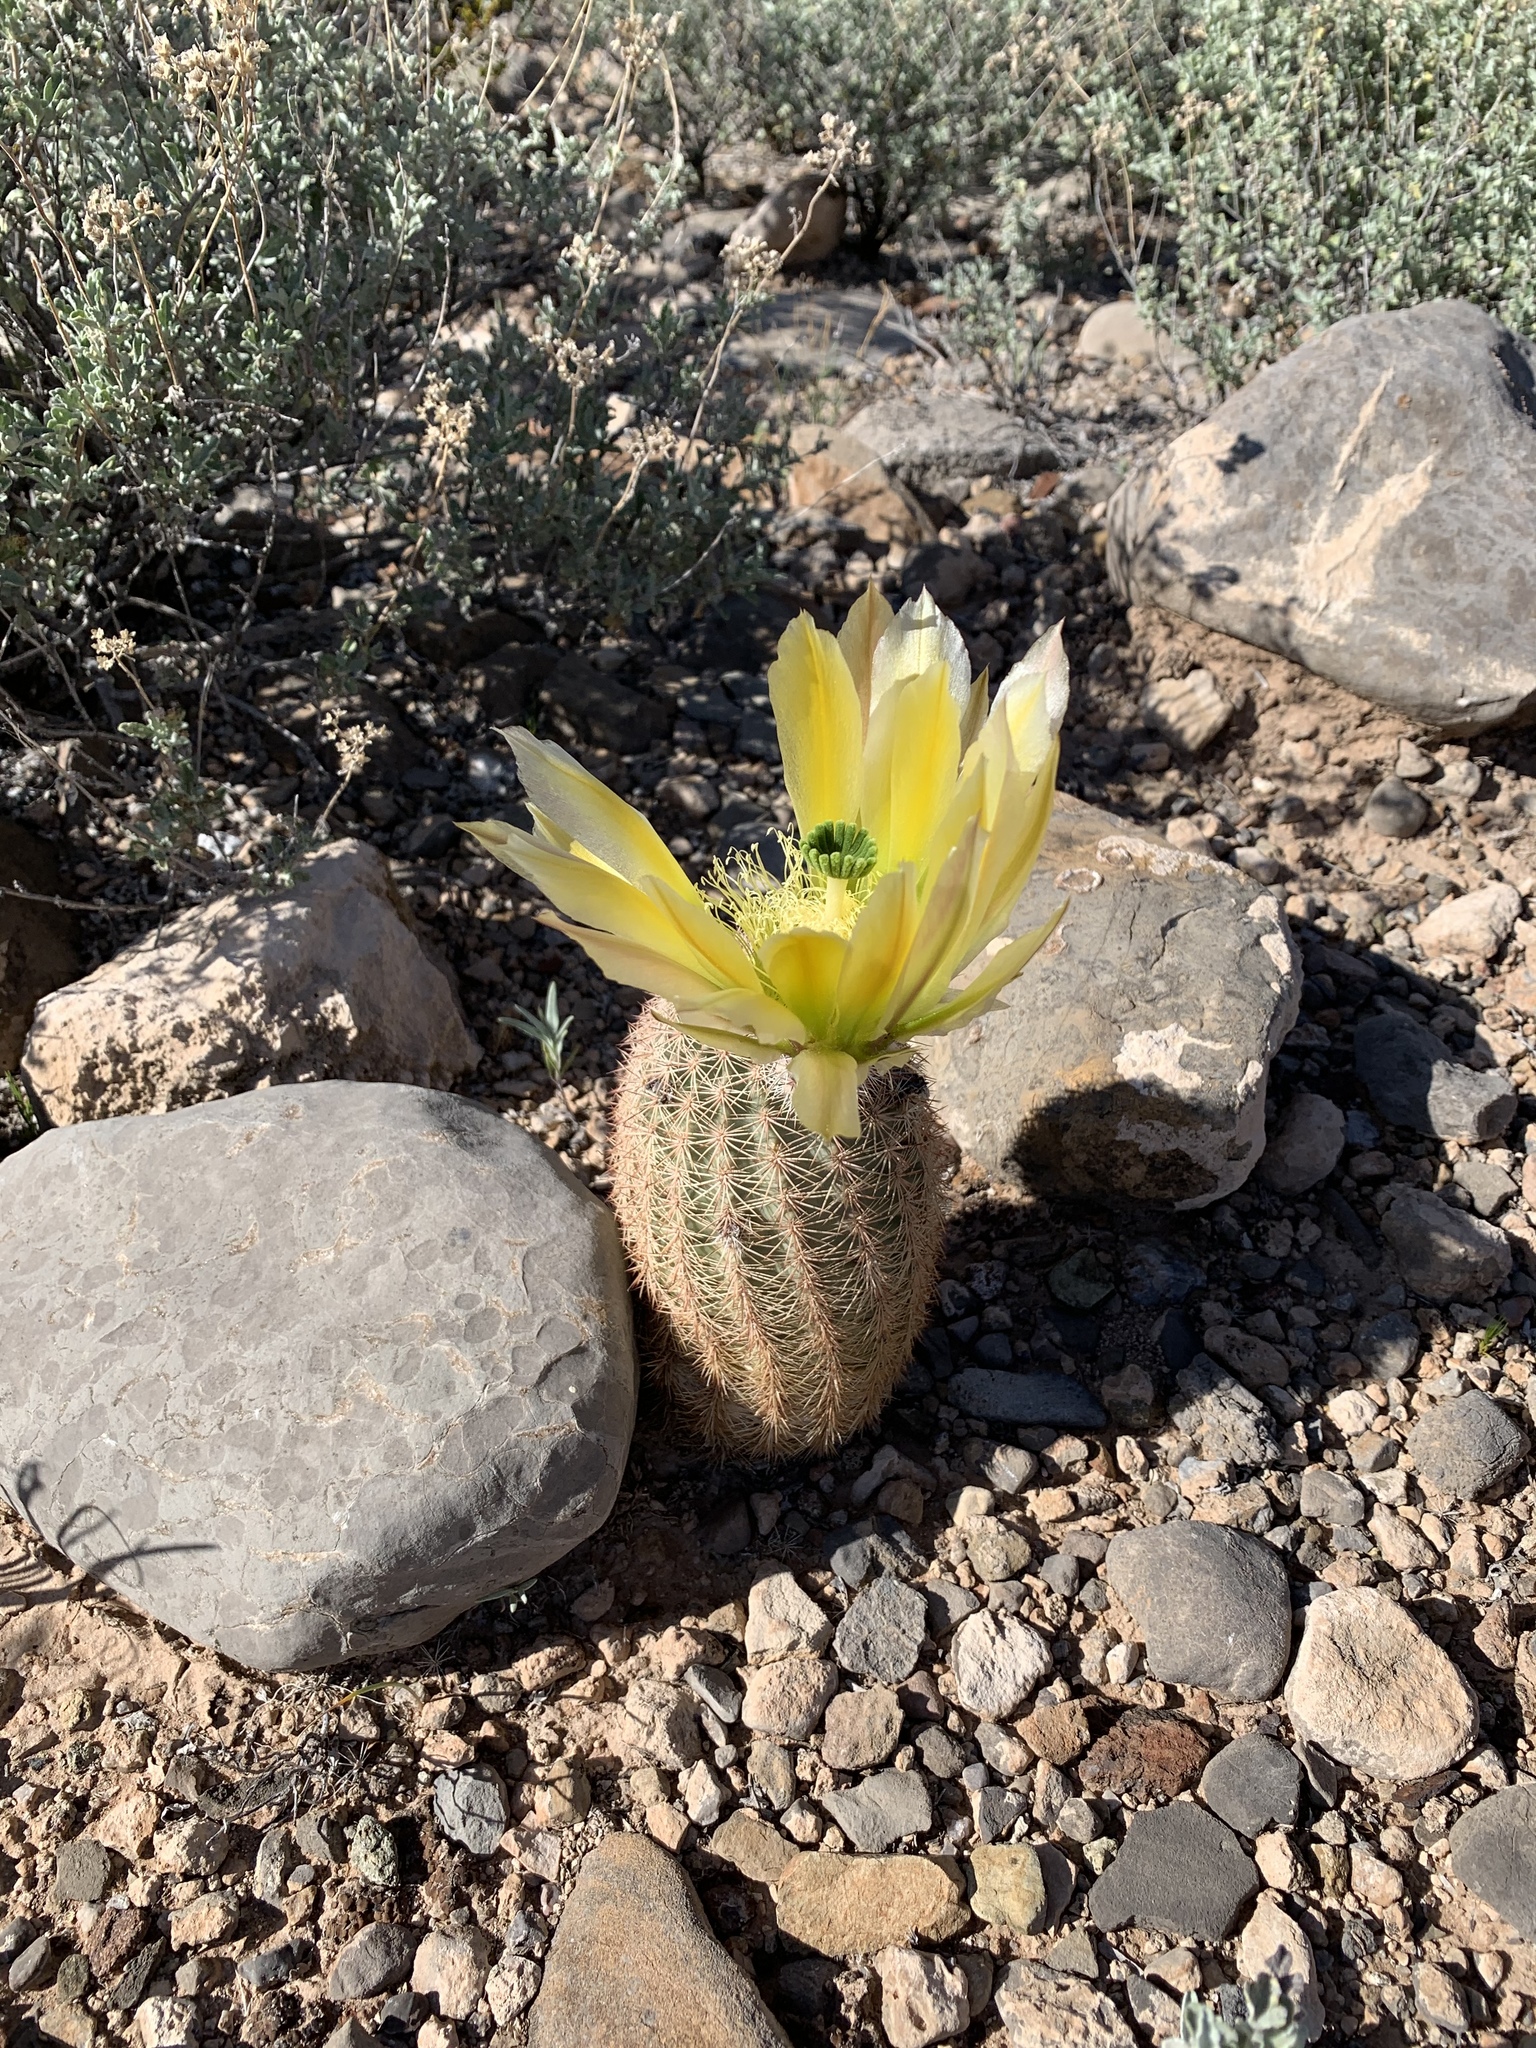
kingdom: Plantae
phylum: Tracheophyta
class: Magnoliopsida
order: Caryophyllales
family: Cactaceae
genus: Echinocereus
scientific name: Echinocereus dasyacanthus
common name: Spiny hedgehog cactus
